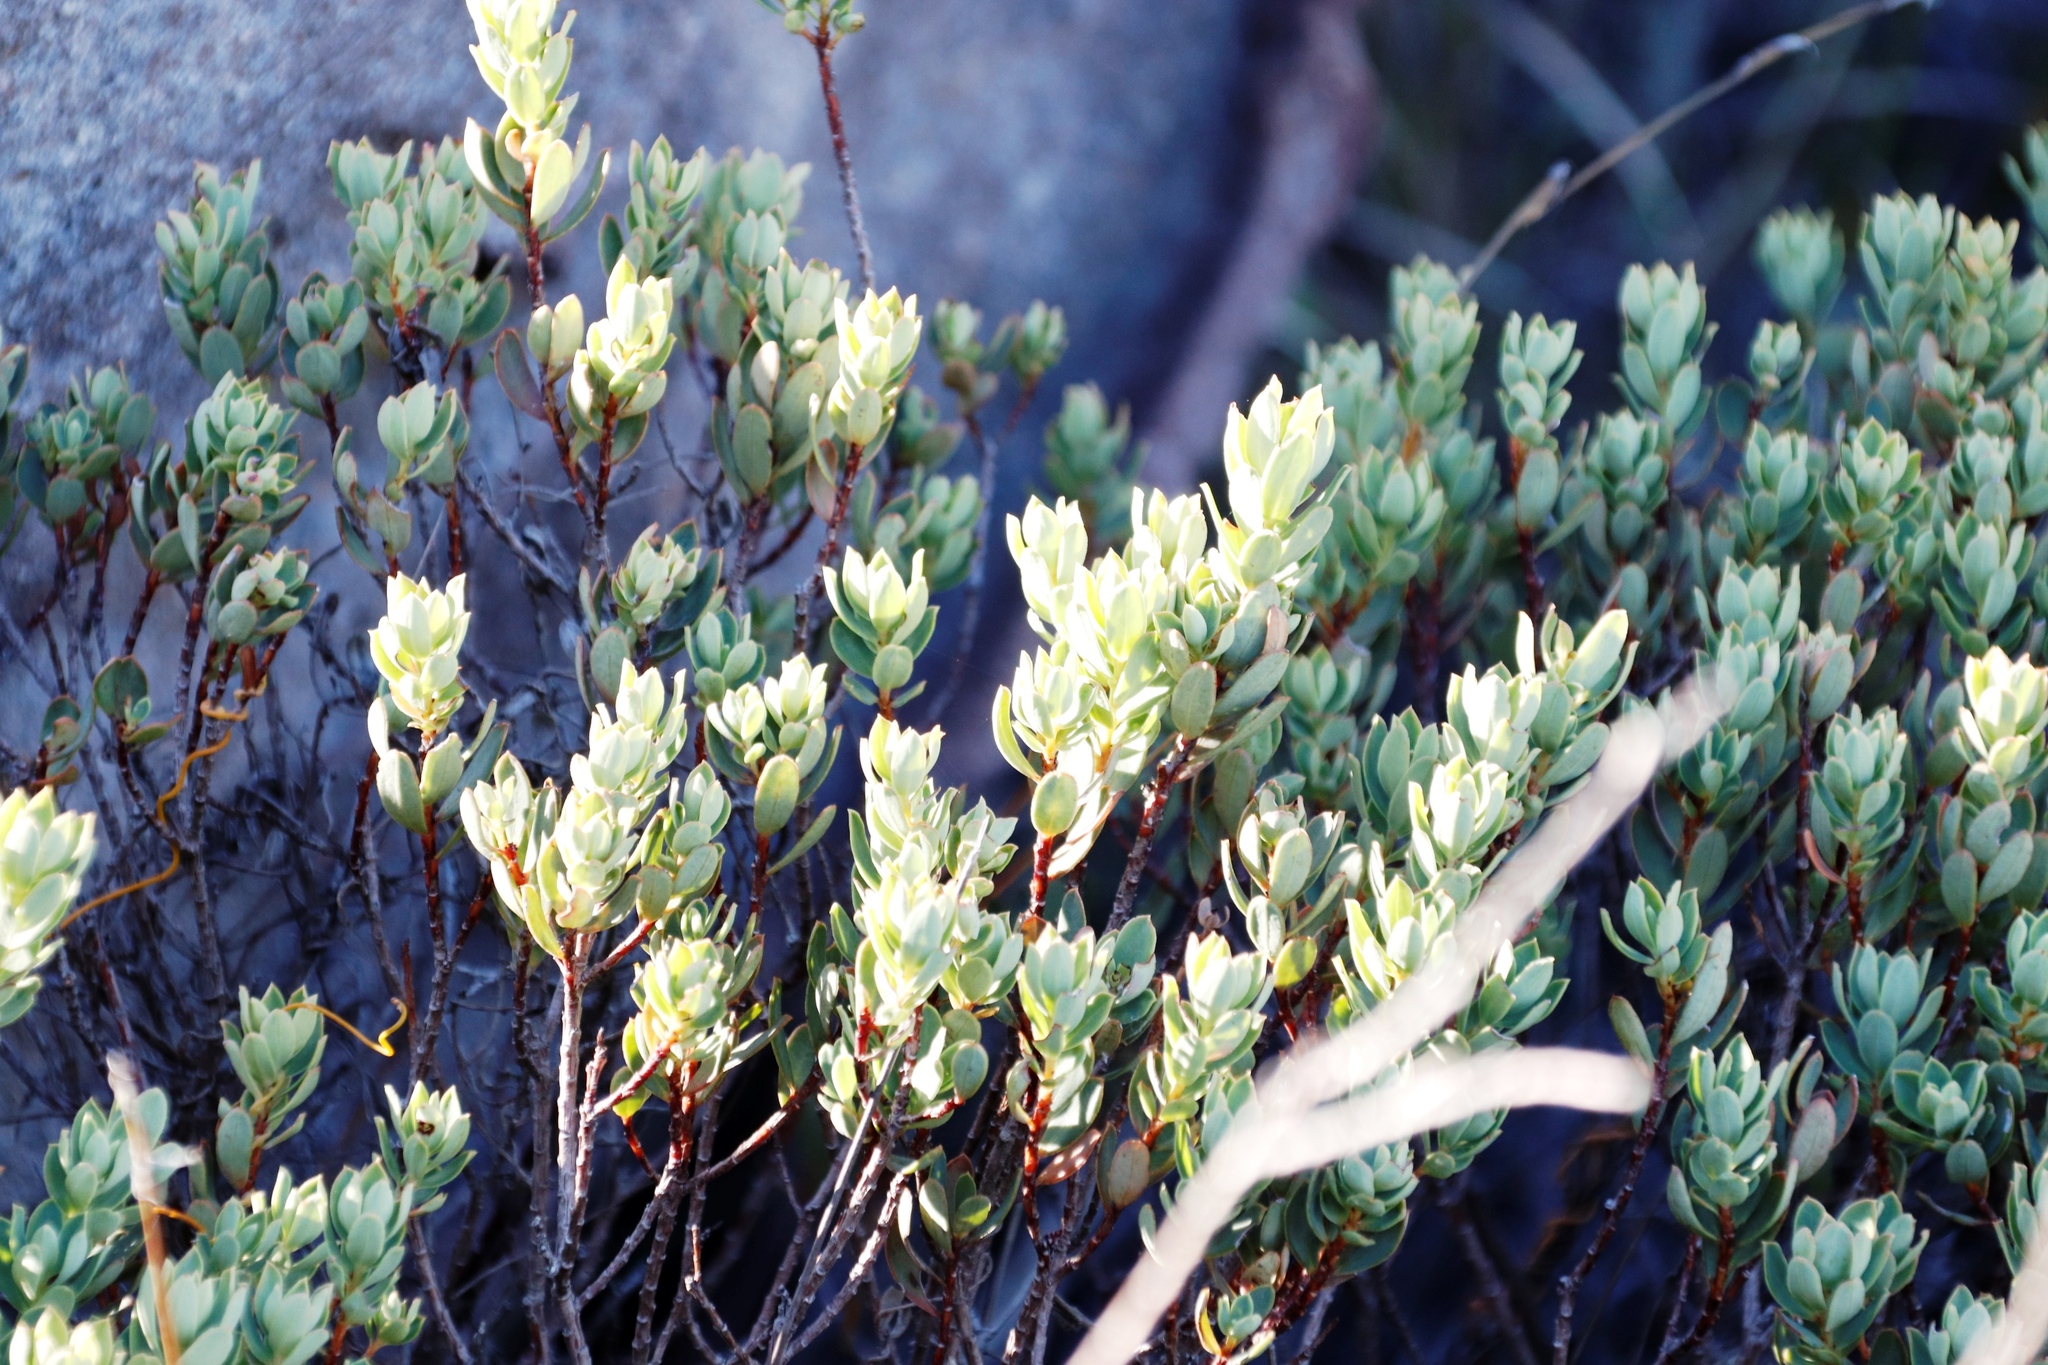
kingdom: Plantae
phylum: Tracheophyta
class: Magnoliopsida
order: Malpighiales
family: Peraceae
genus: Clutia
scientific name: Clutia alaternoides
